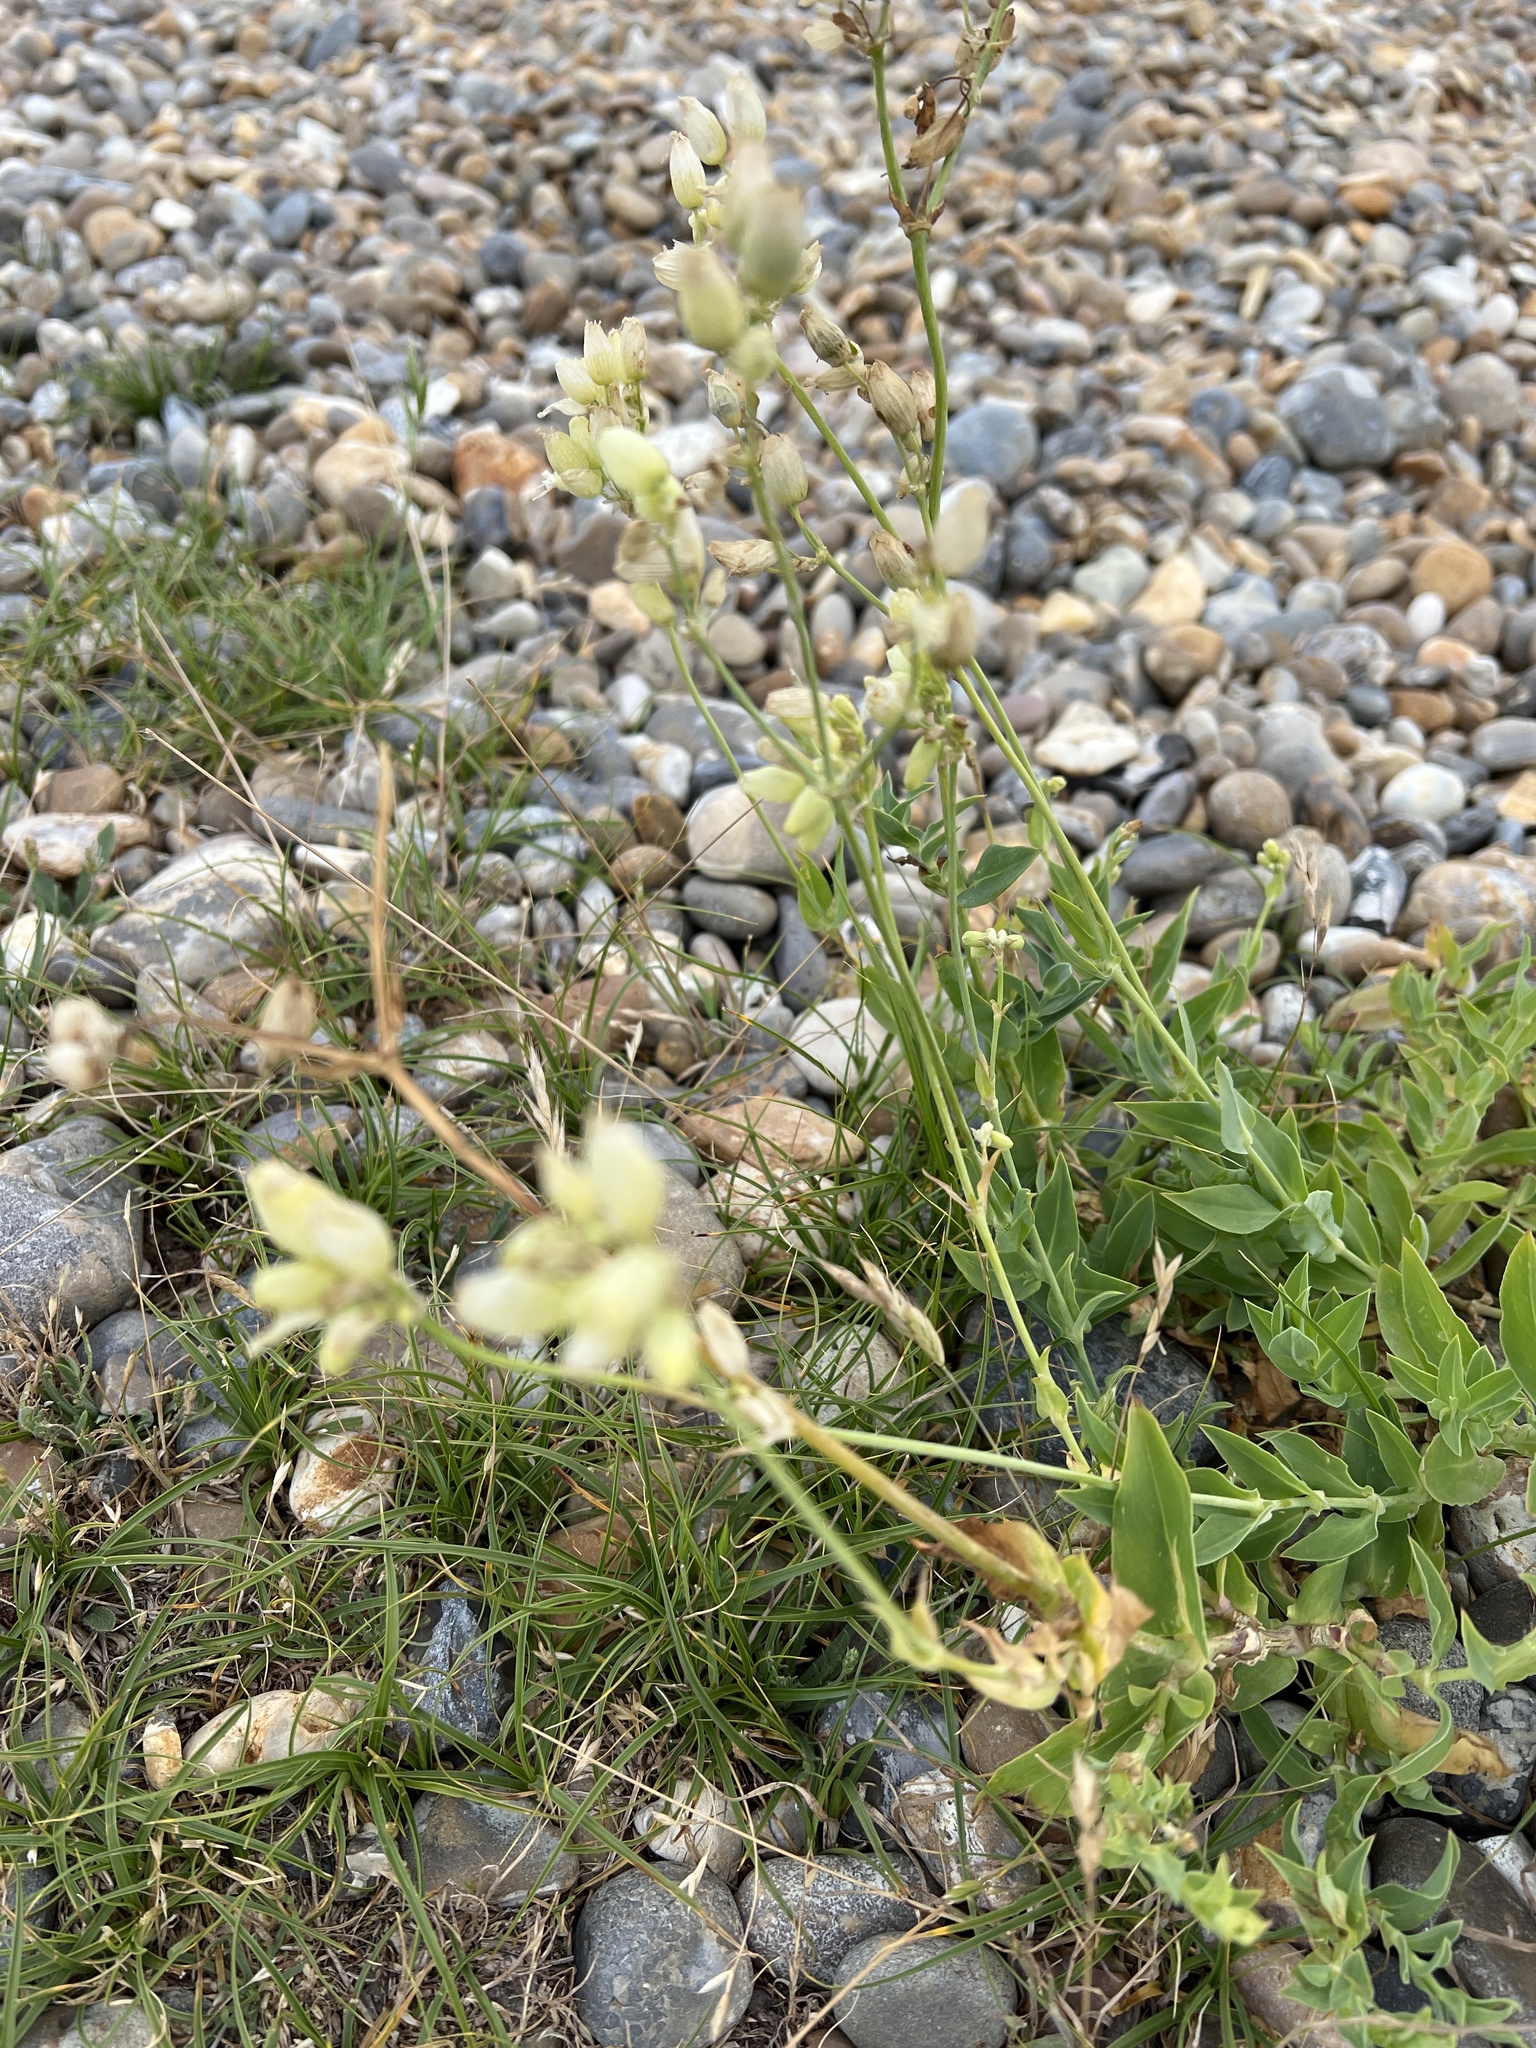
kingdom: Plantae
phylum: Tracheophyta
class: Magnoliopsida
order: Caryophyllales
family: Caryophyllaceae
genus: Silene
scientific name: Silene uniflora
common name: Sea campion
